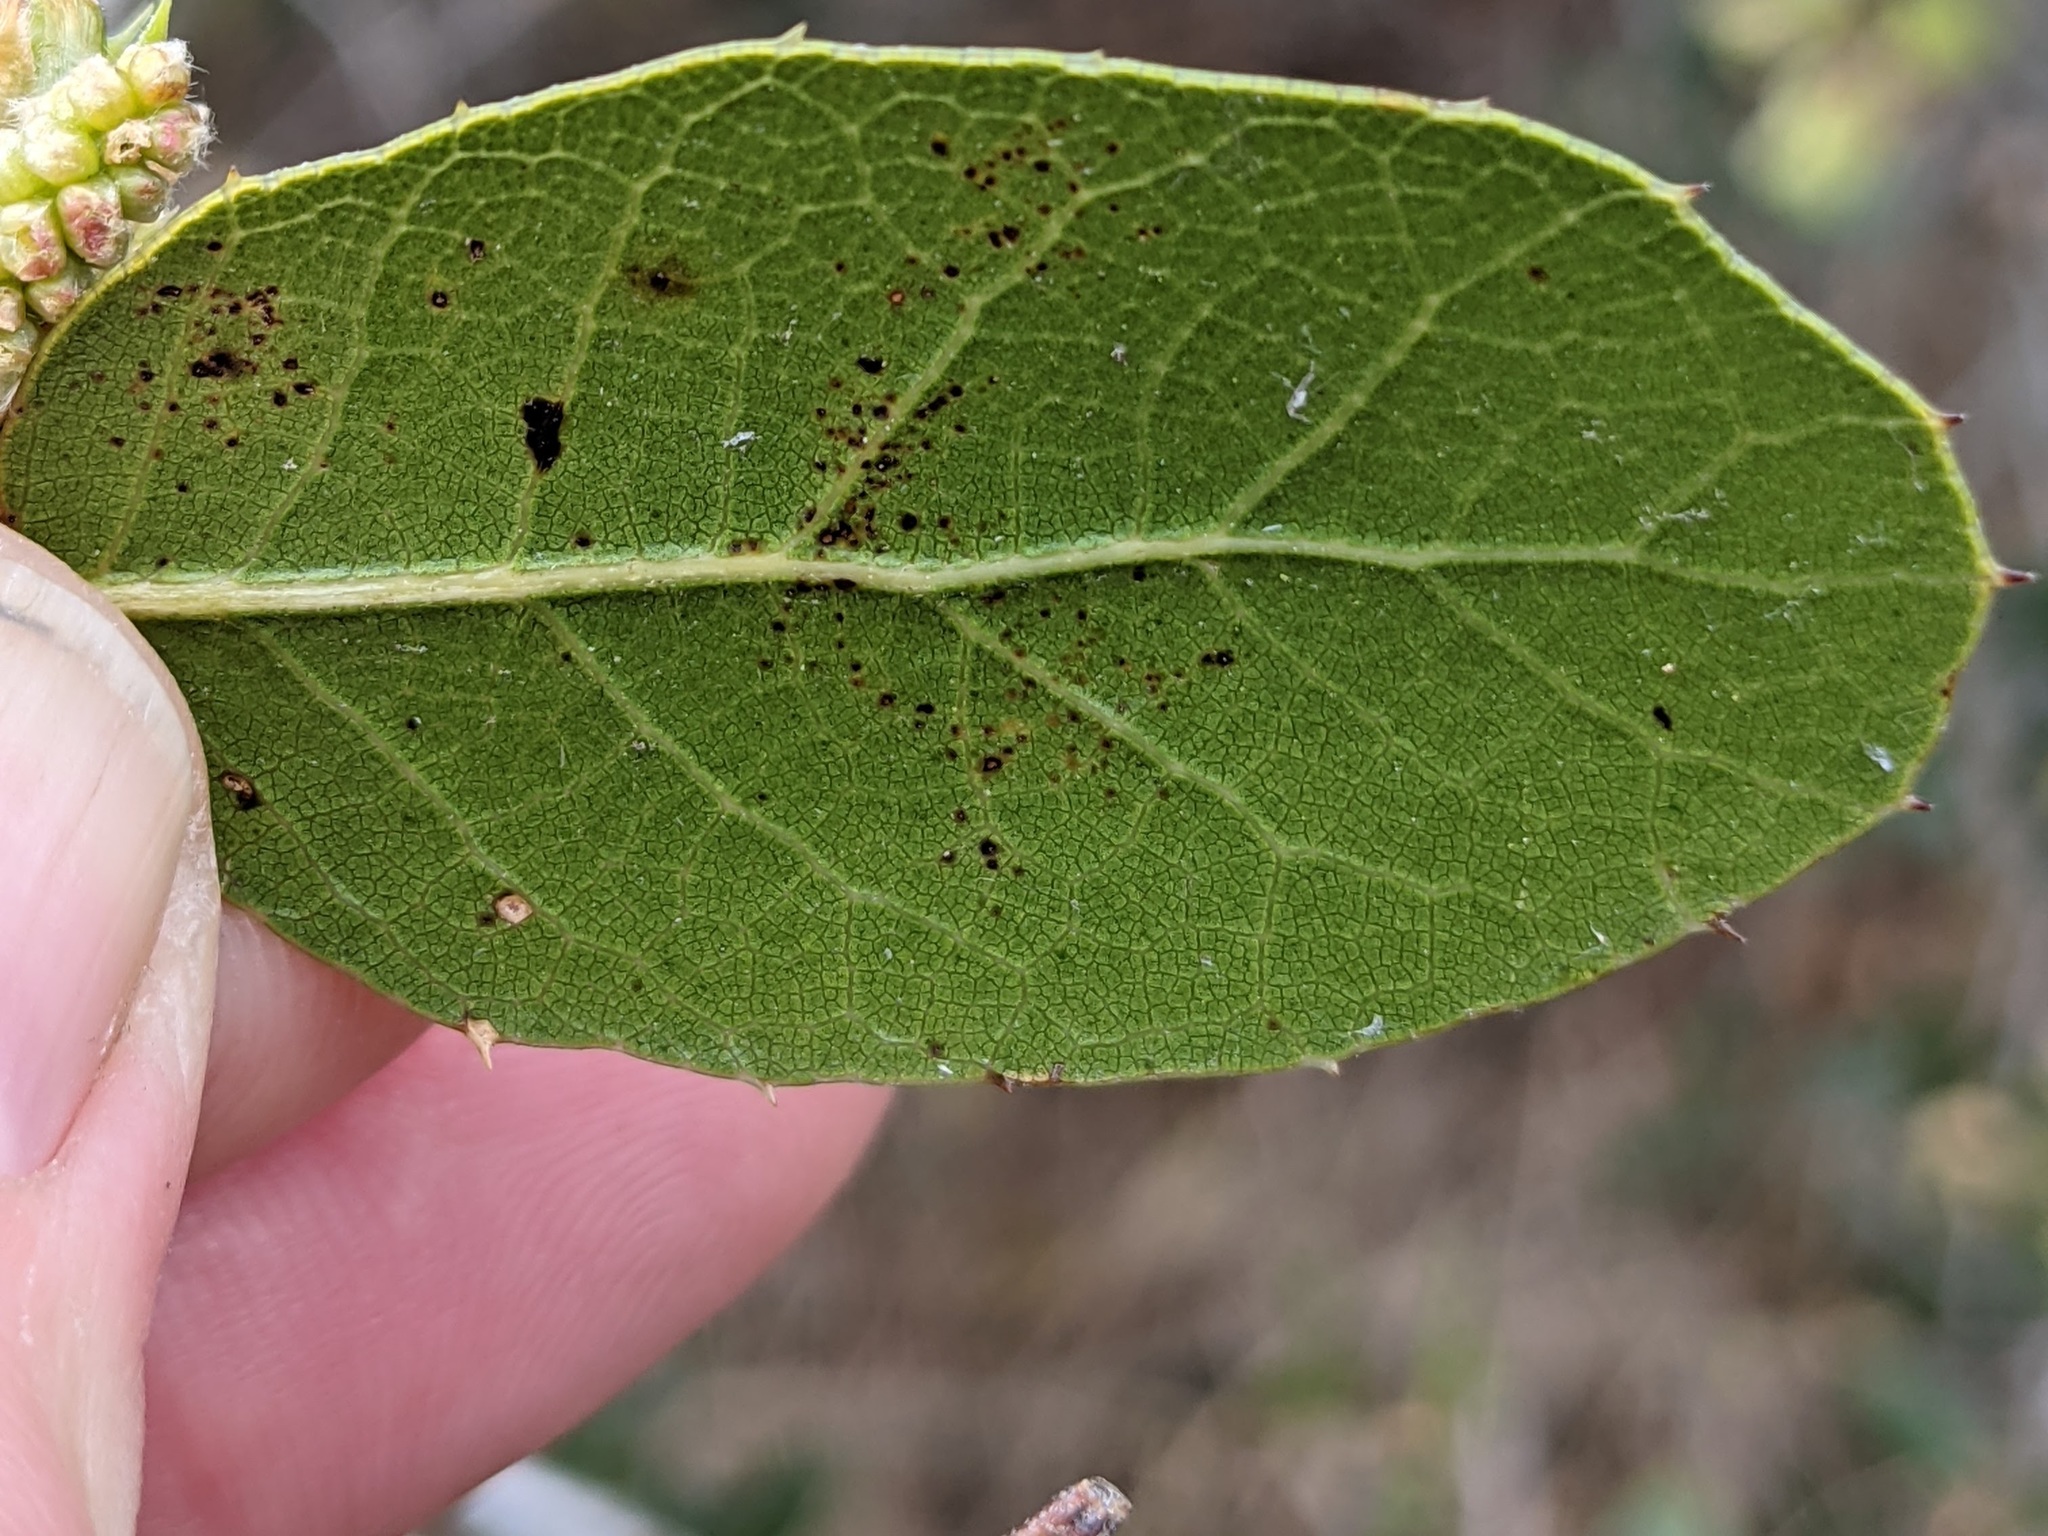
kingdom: Plantae
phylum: Tracheophyta
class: Magnoliopsida
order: Fagales
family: Fagaceae
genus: Quercus
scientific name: Quercus wislizeni
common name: Interior live oak
